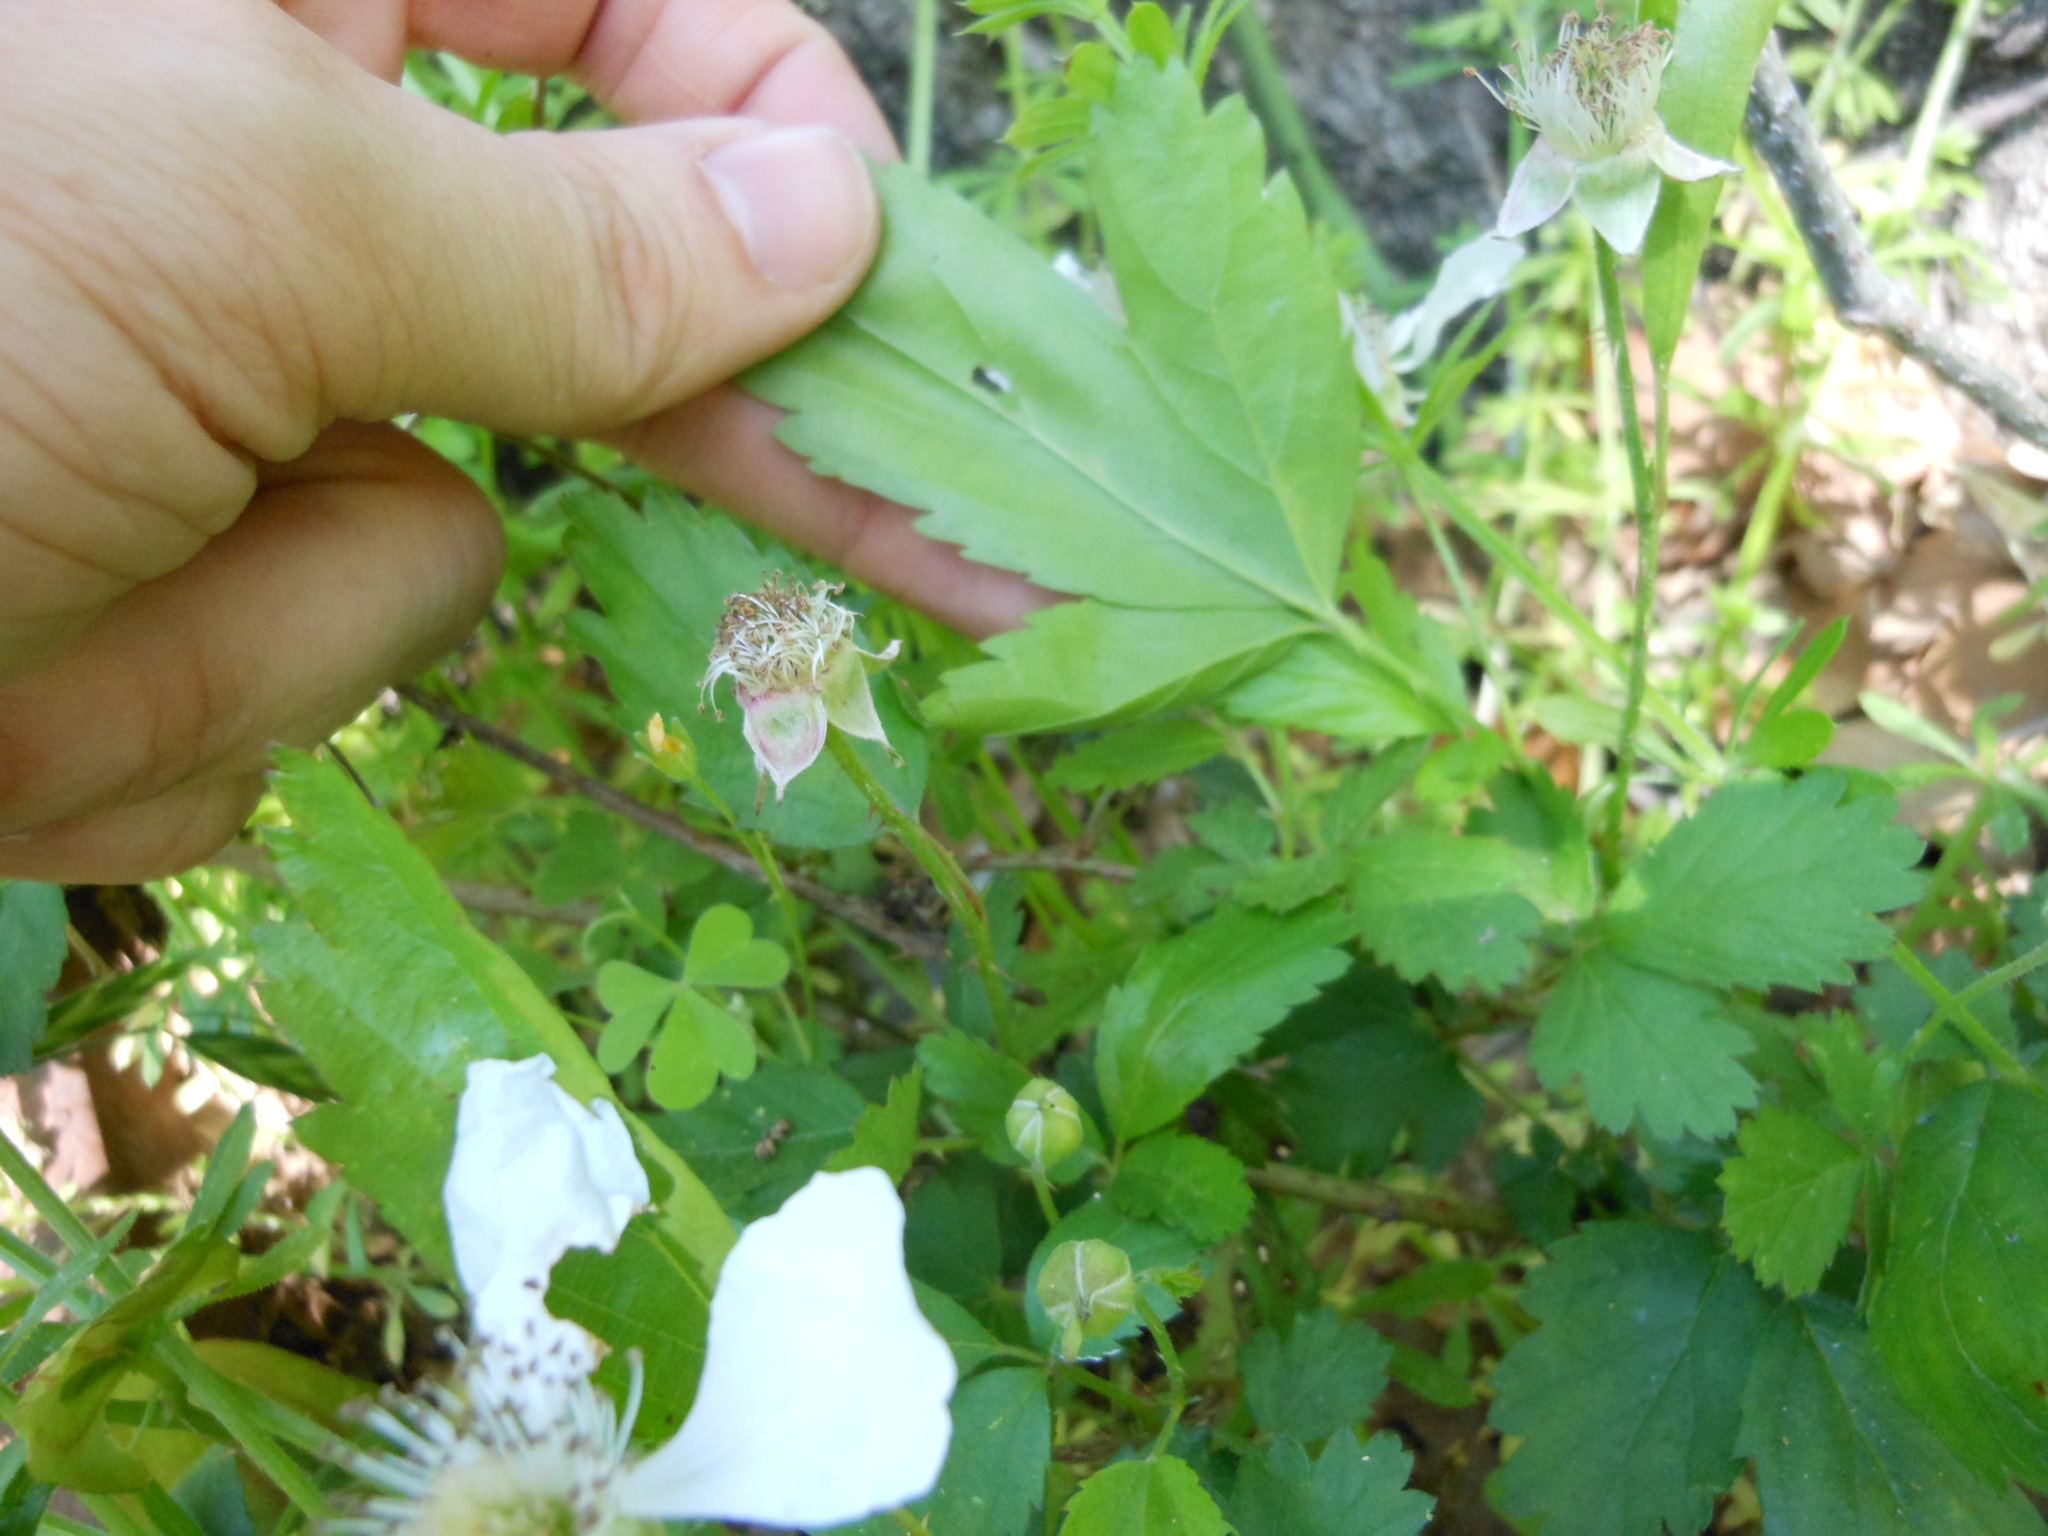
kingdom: Plantae
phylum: Tracheophyta
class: Magnoliopsida
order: Rosales
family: Rosaceae
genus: Rubus
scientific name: Rubus trivialis
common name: Southern dewberry
